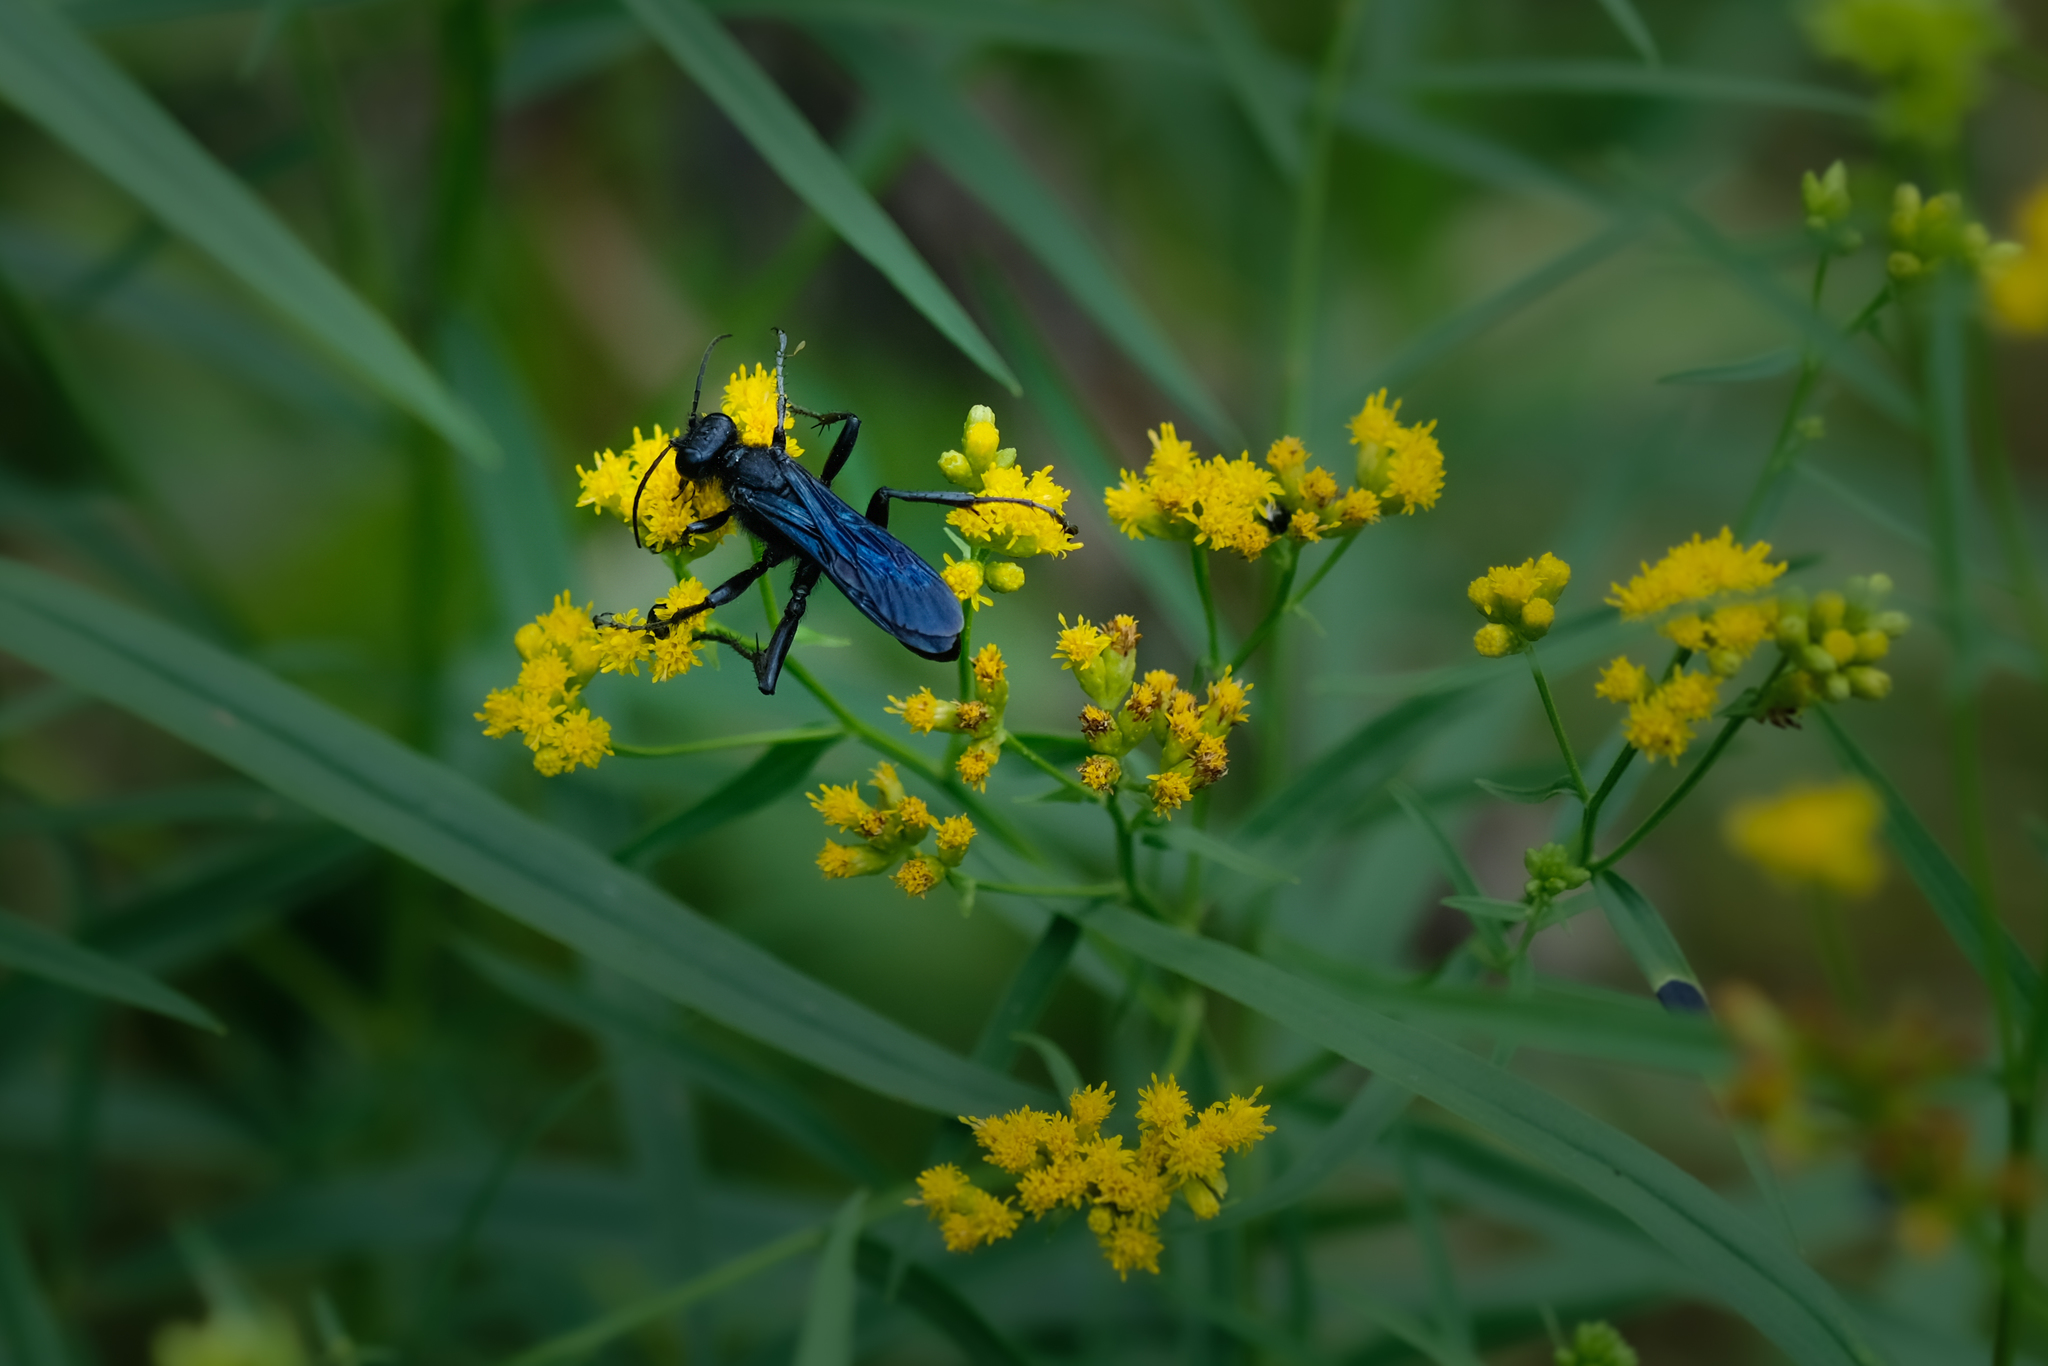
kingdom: Animalia
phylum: Arthropoda
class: Insecta
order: Hymenoptera
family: Sphecidae
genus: Sphex
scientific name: Sphex pensylvanicus
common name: Great black digger wasp
